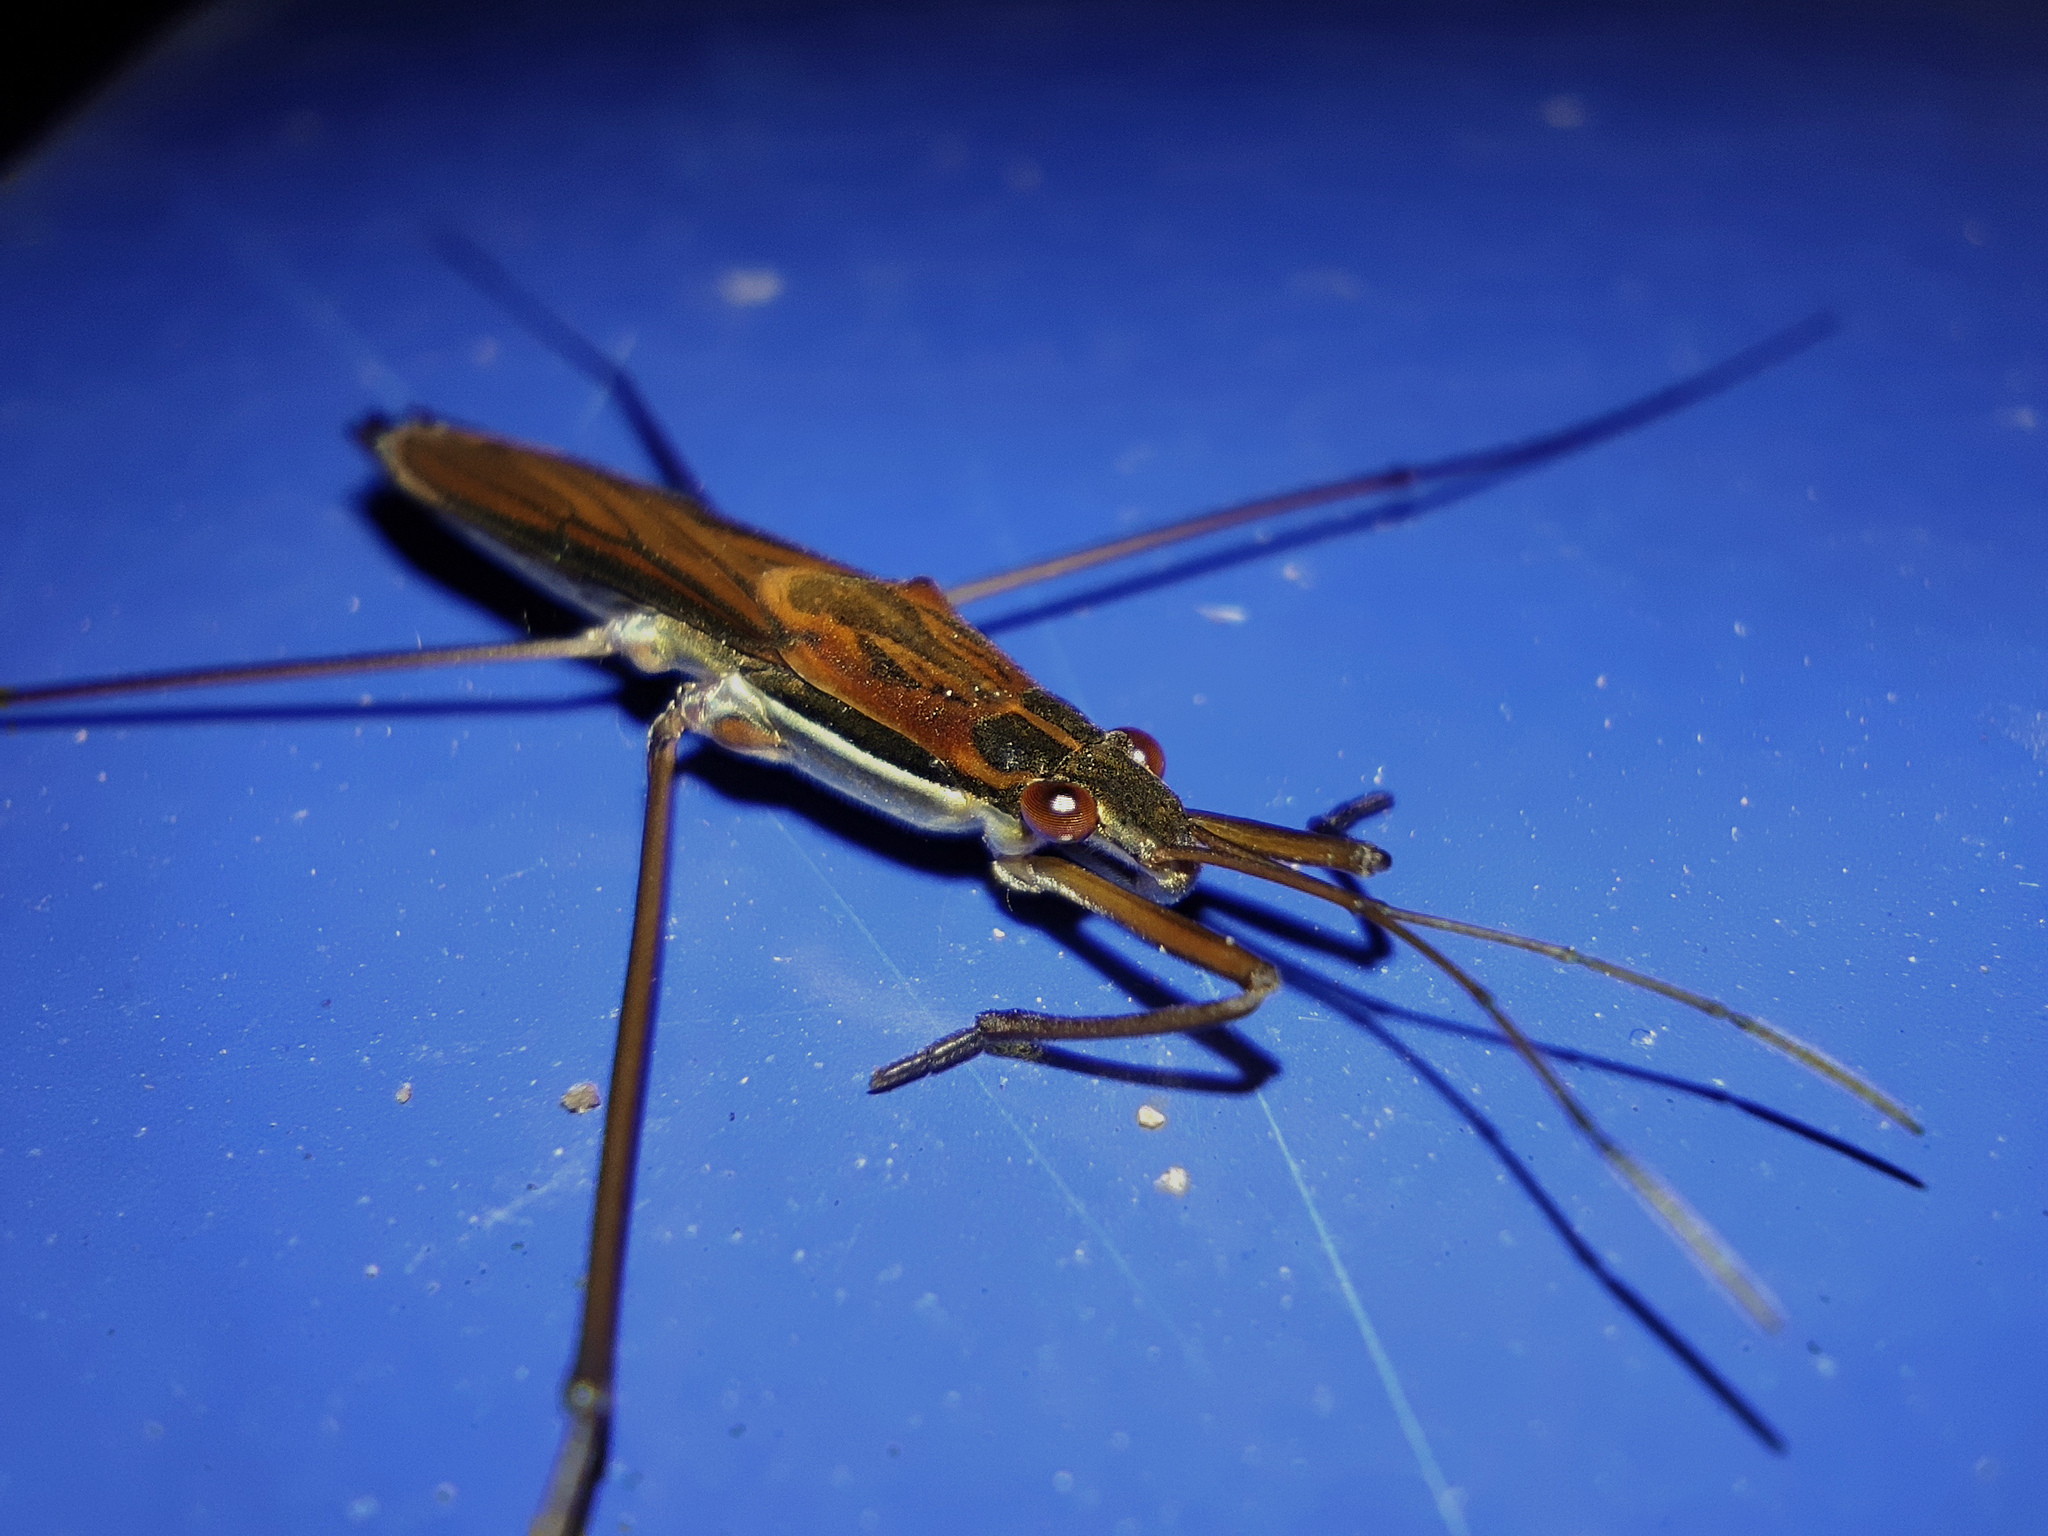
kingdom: Animalia
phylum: Arthropoda
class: Insecta
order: Hemiptera
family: Gerridae
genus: Limnoporus
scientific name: Limnoporus rufoscutellatus
